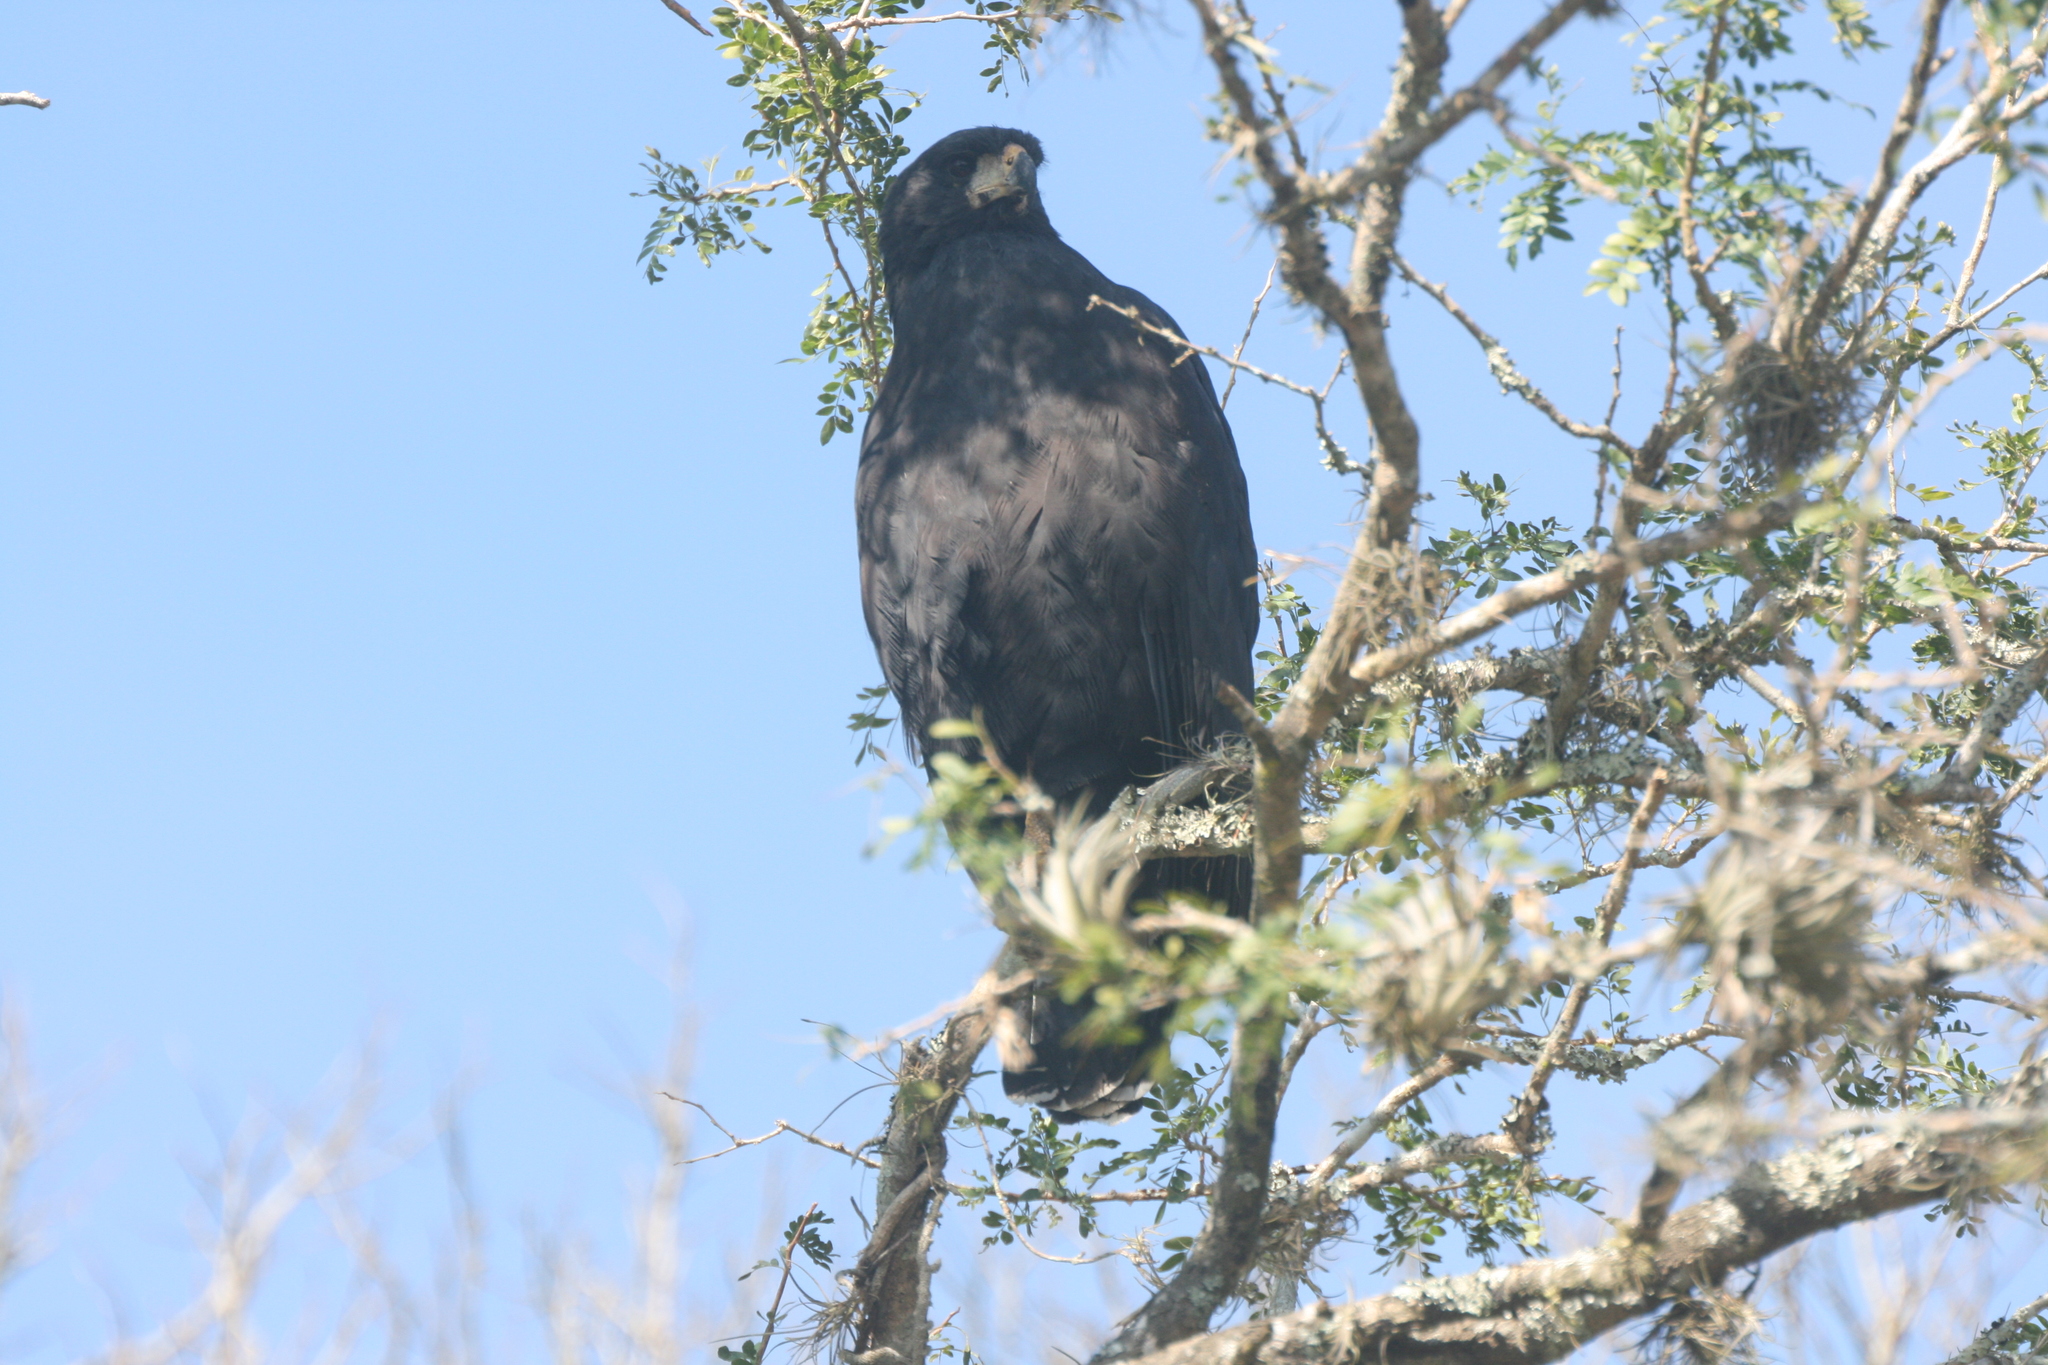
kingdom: Animalia
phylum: Chordata
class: Aves
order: Accipitriformes
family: Accipitridae
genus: Buteogallus
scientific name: Buteogallus urubitinga
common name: Great black hawk
